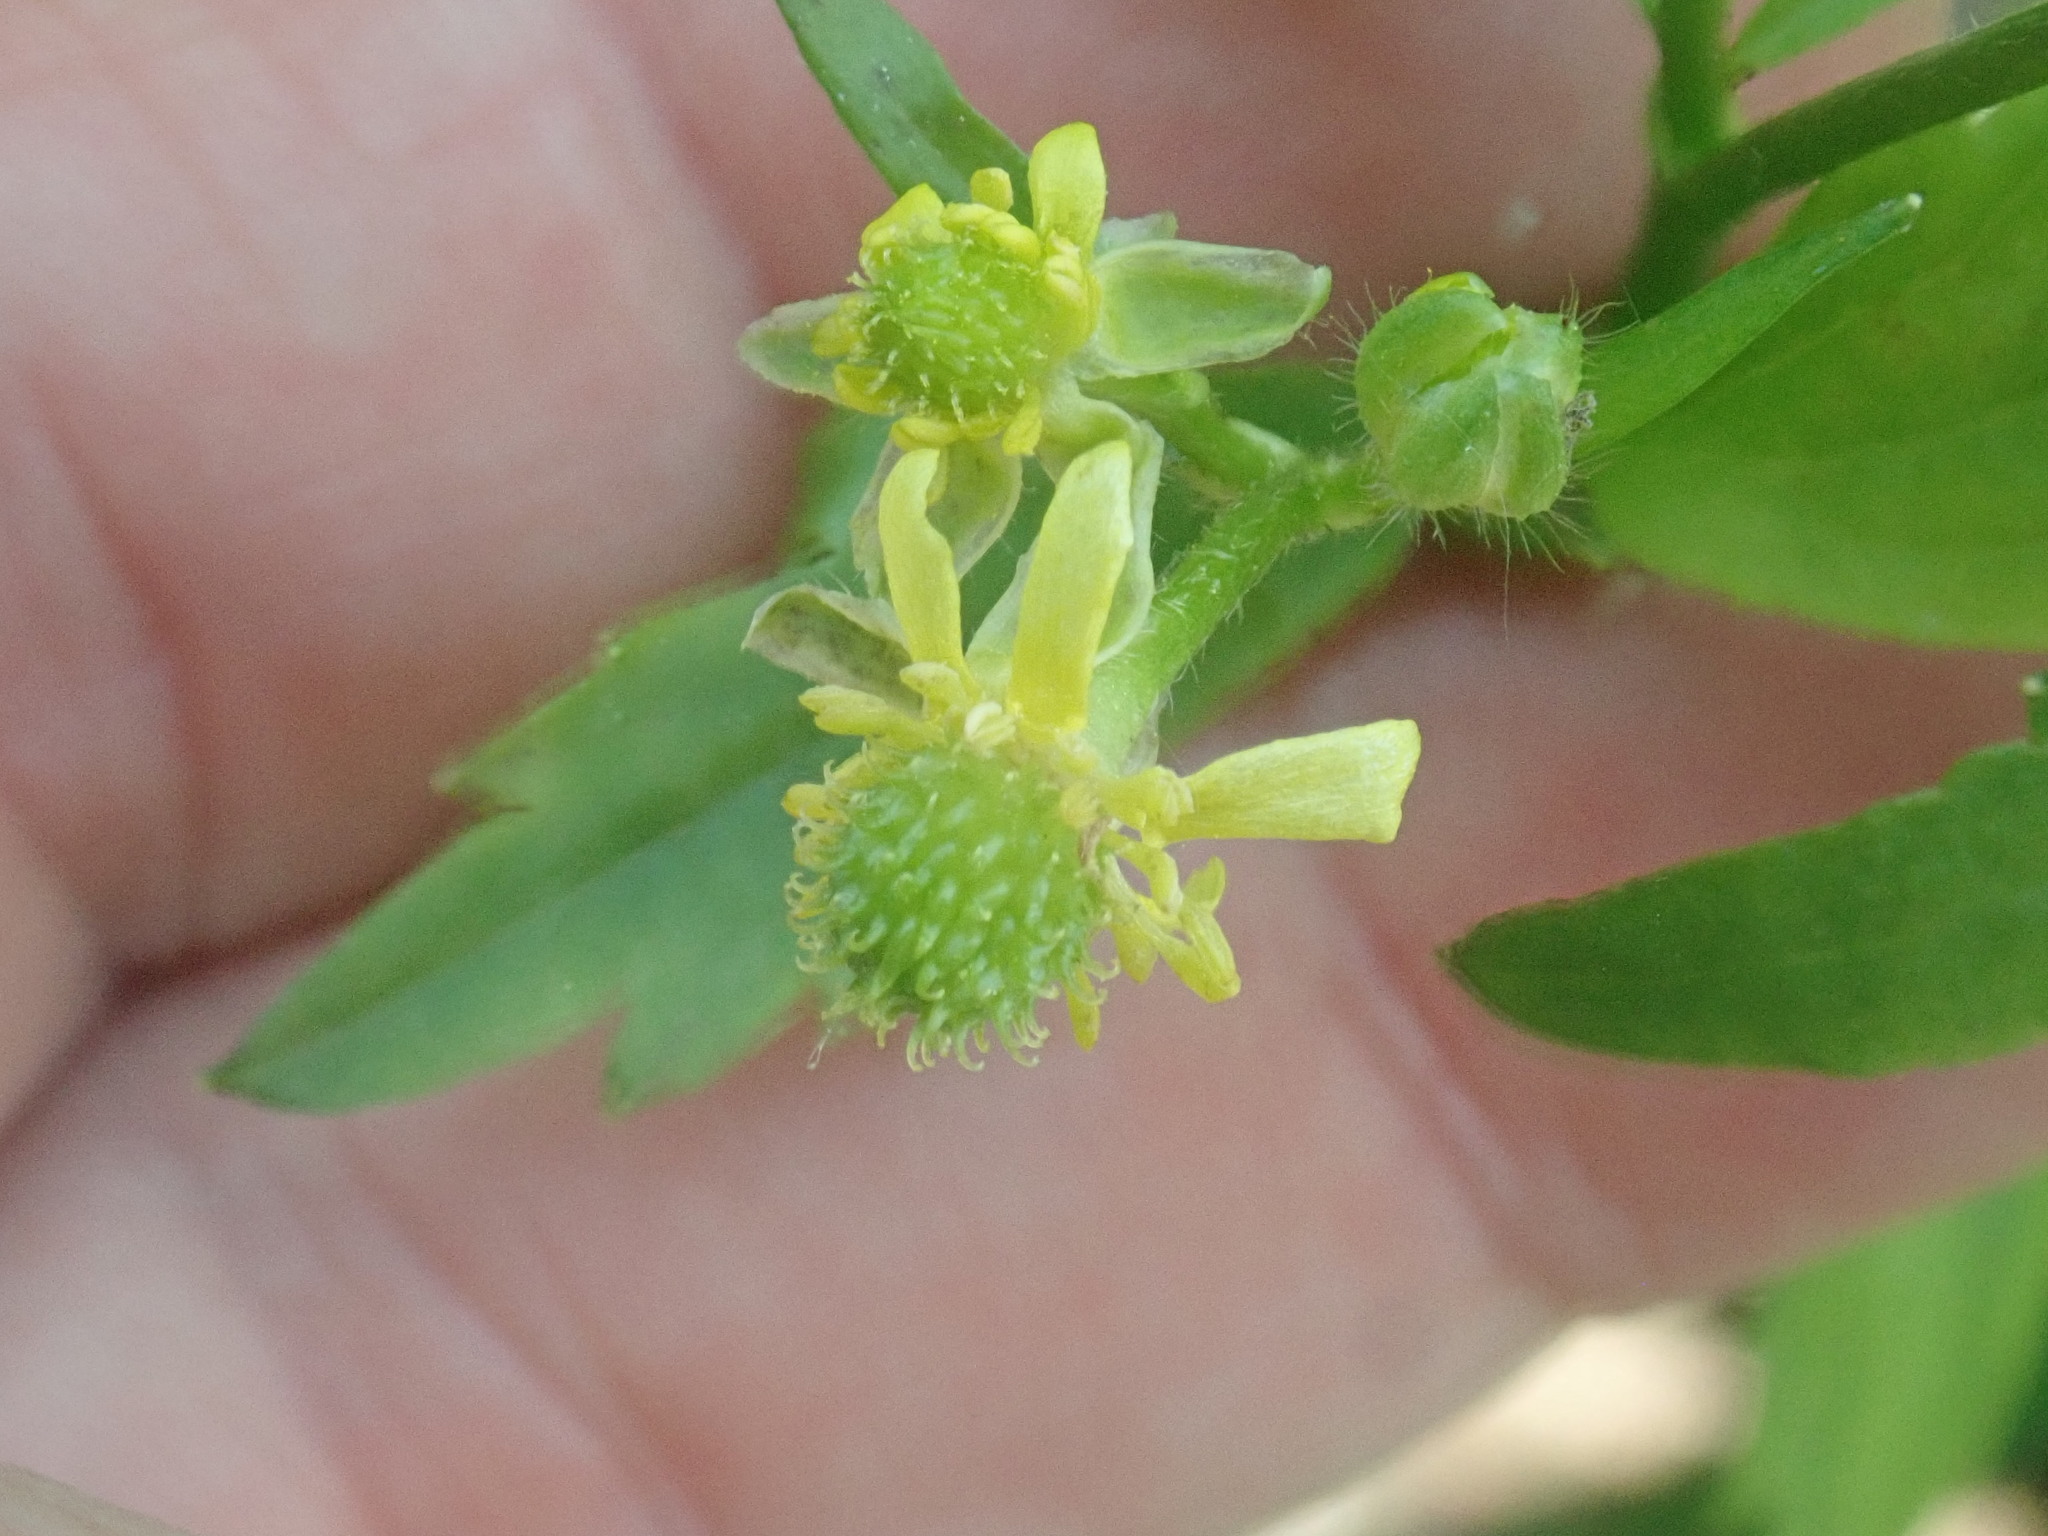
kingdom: Plantae
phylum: Tracheophyta
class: Magnoliopsida
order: Ranunculales
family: Ranunculaceae
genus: Ranunculus
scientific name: Ranunculus recurvatus
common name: Blisterwort
